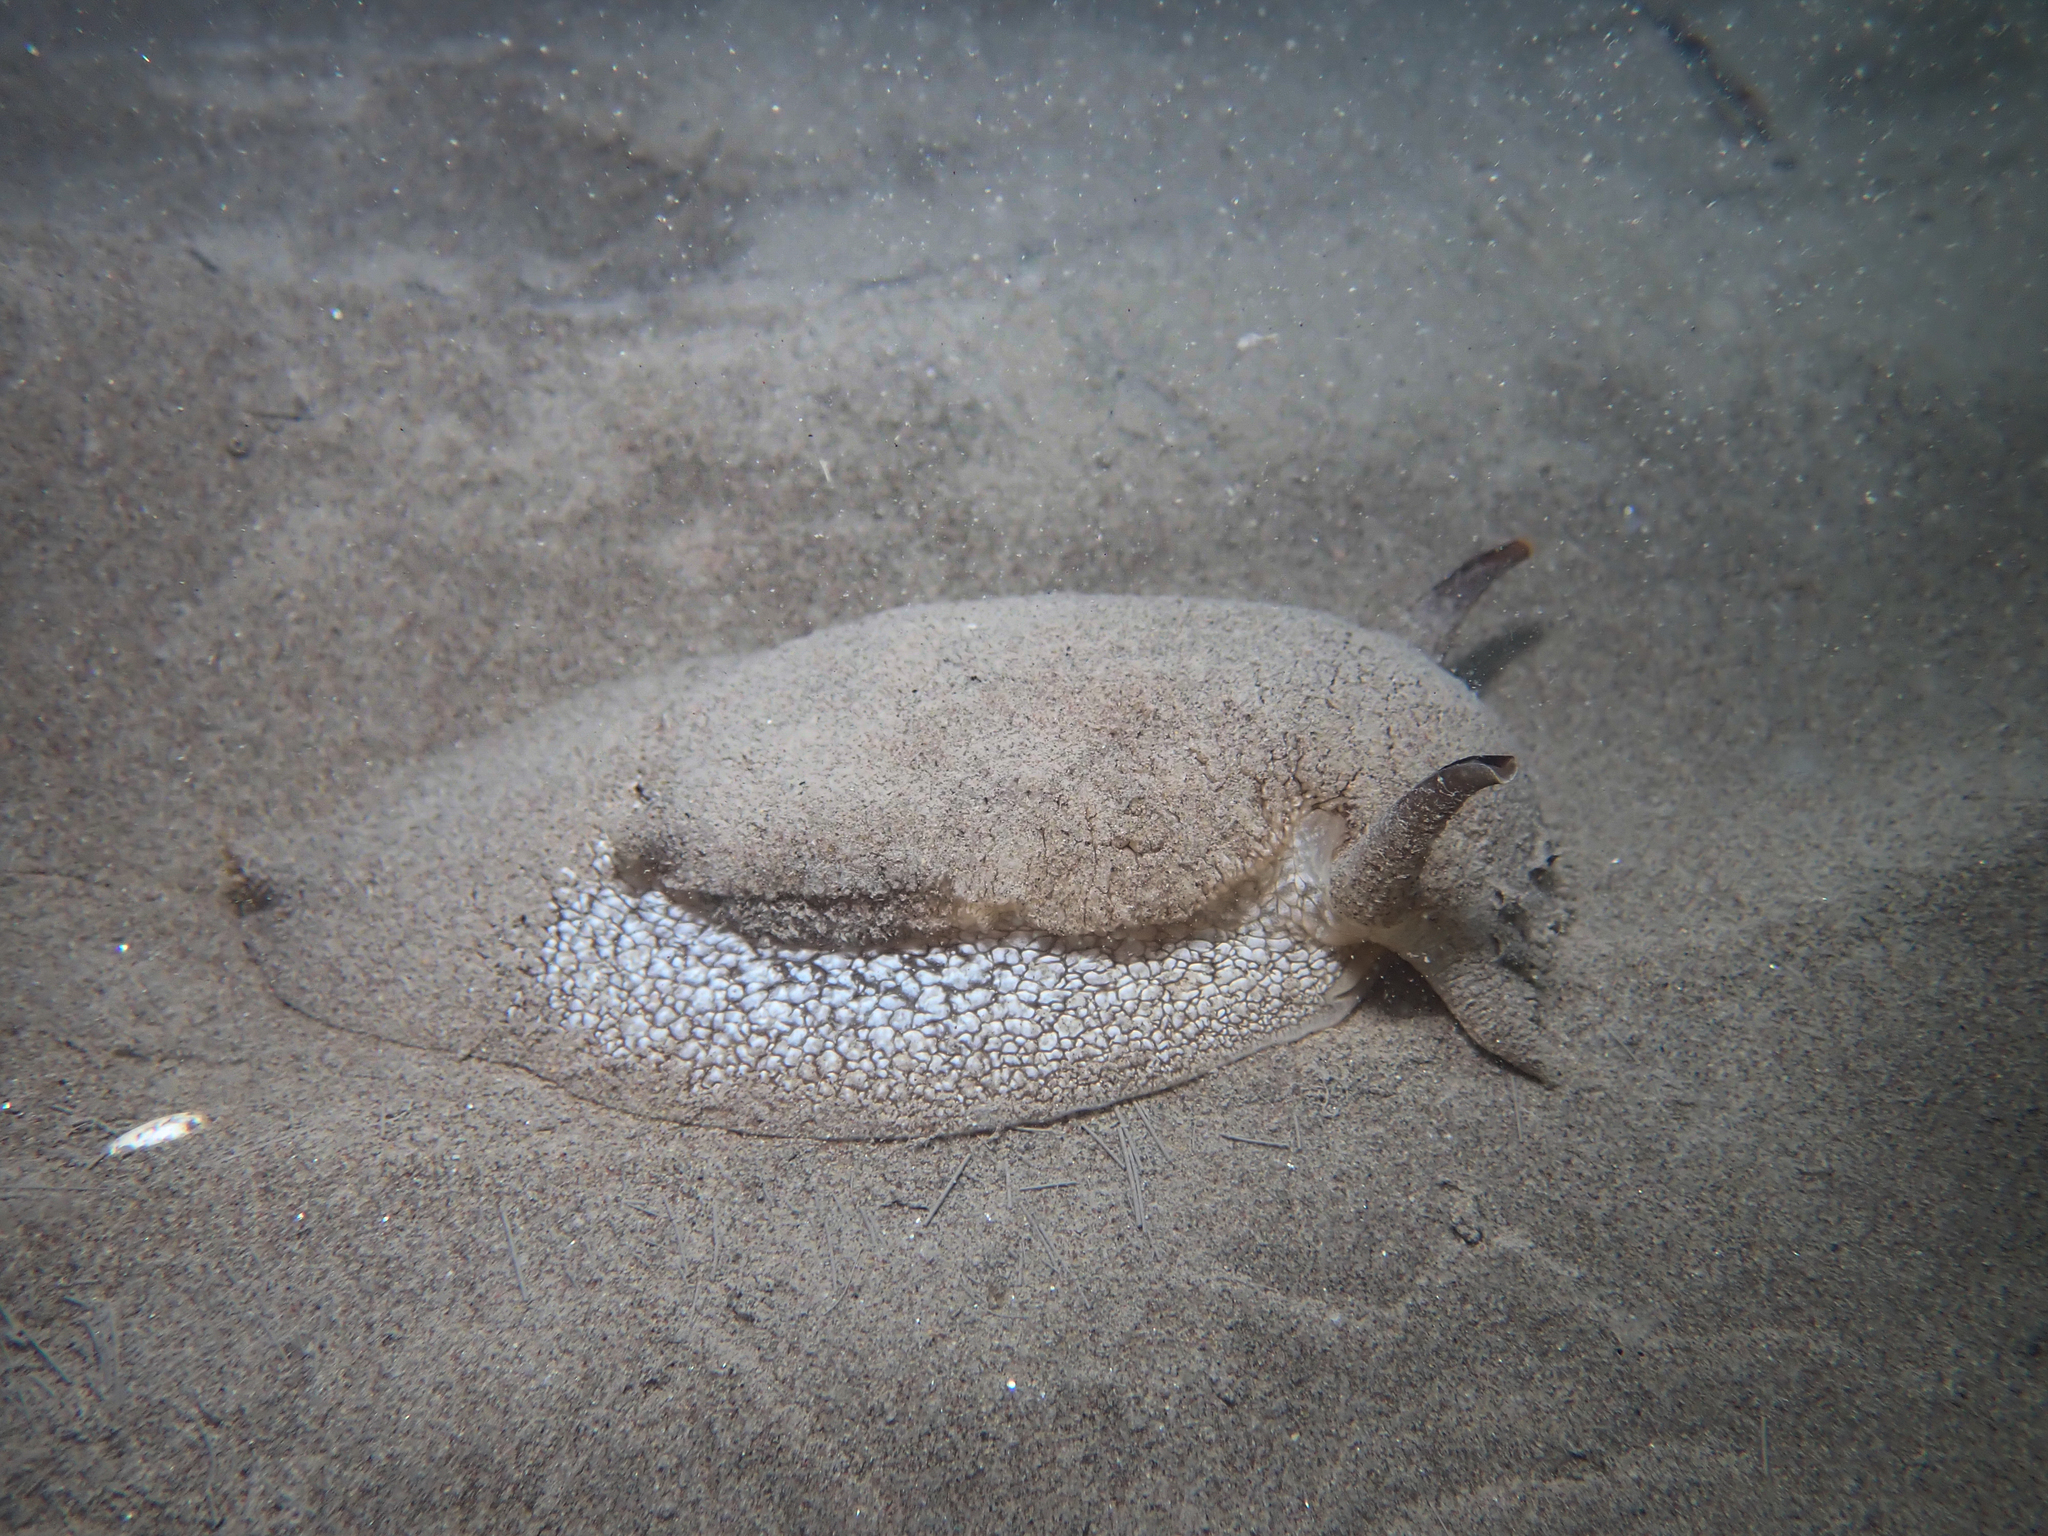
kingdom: Animalia
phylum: Mollusca
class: Gastropoda
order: Pleurobranchida
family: Pleurobranchaeidae
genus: Pleurobranchaea
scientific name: Pleurobranchaea meckeli
